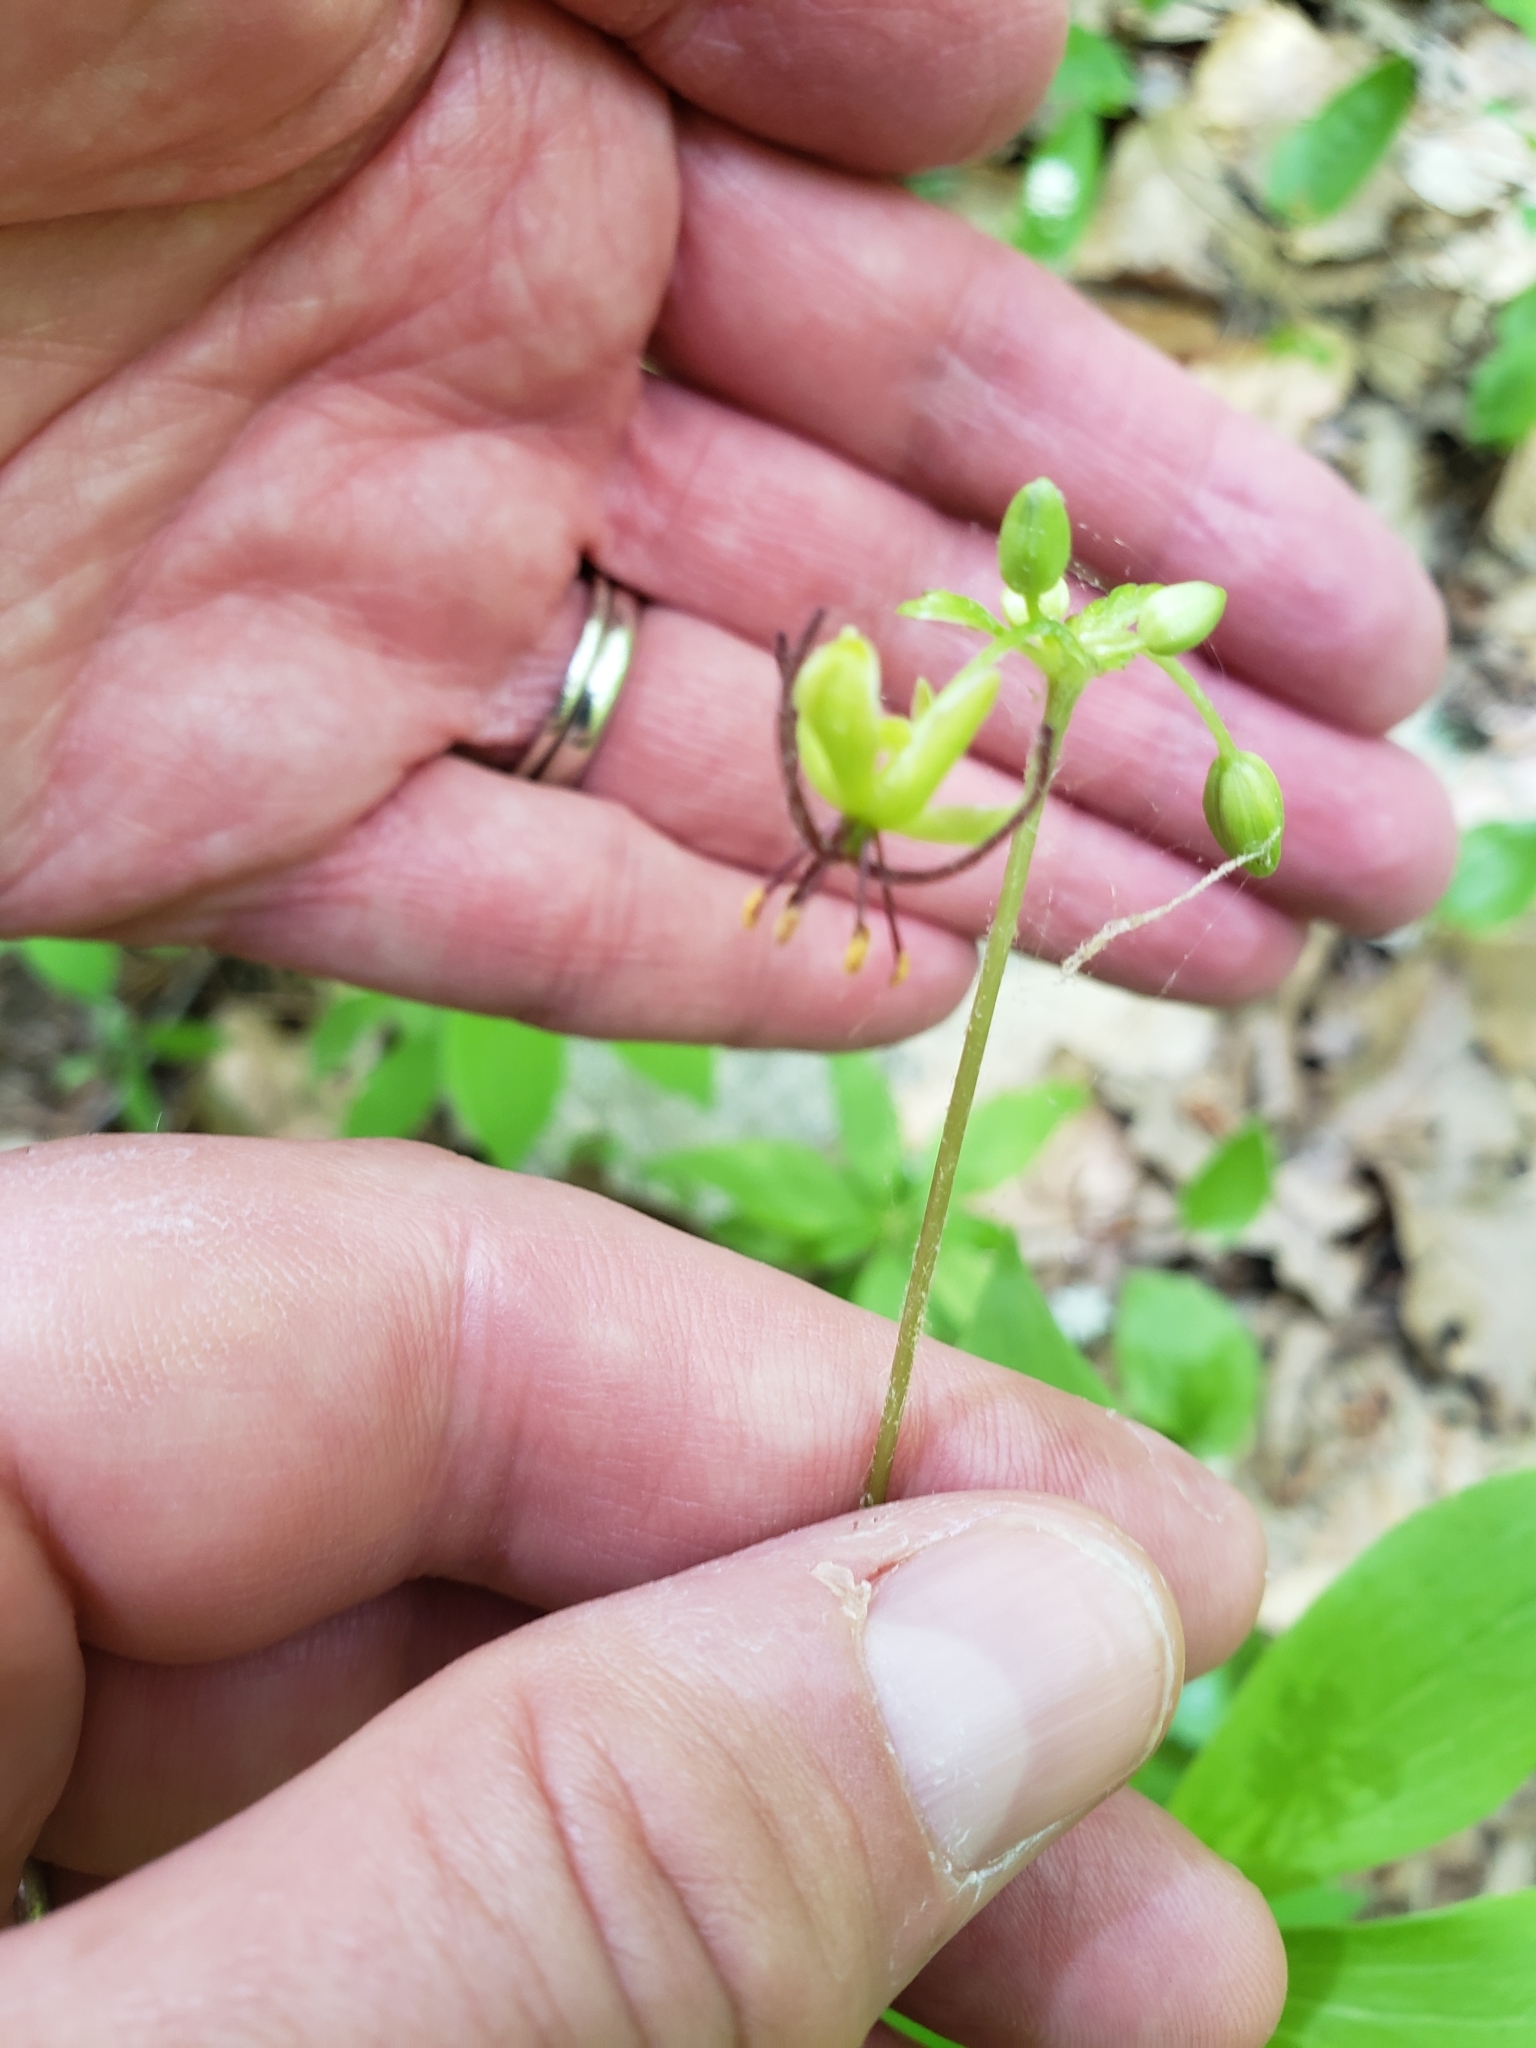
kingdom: Plantae
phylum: Tracheophyta
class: Liliopsida
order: Liliales
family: Liliaceae
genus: Medeola
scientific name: Medeola virginiana
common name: Indian cucumber-root
